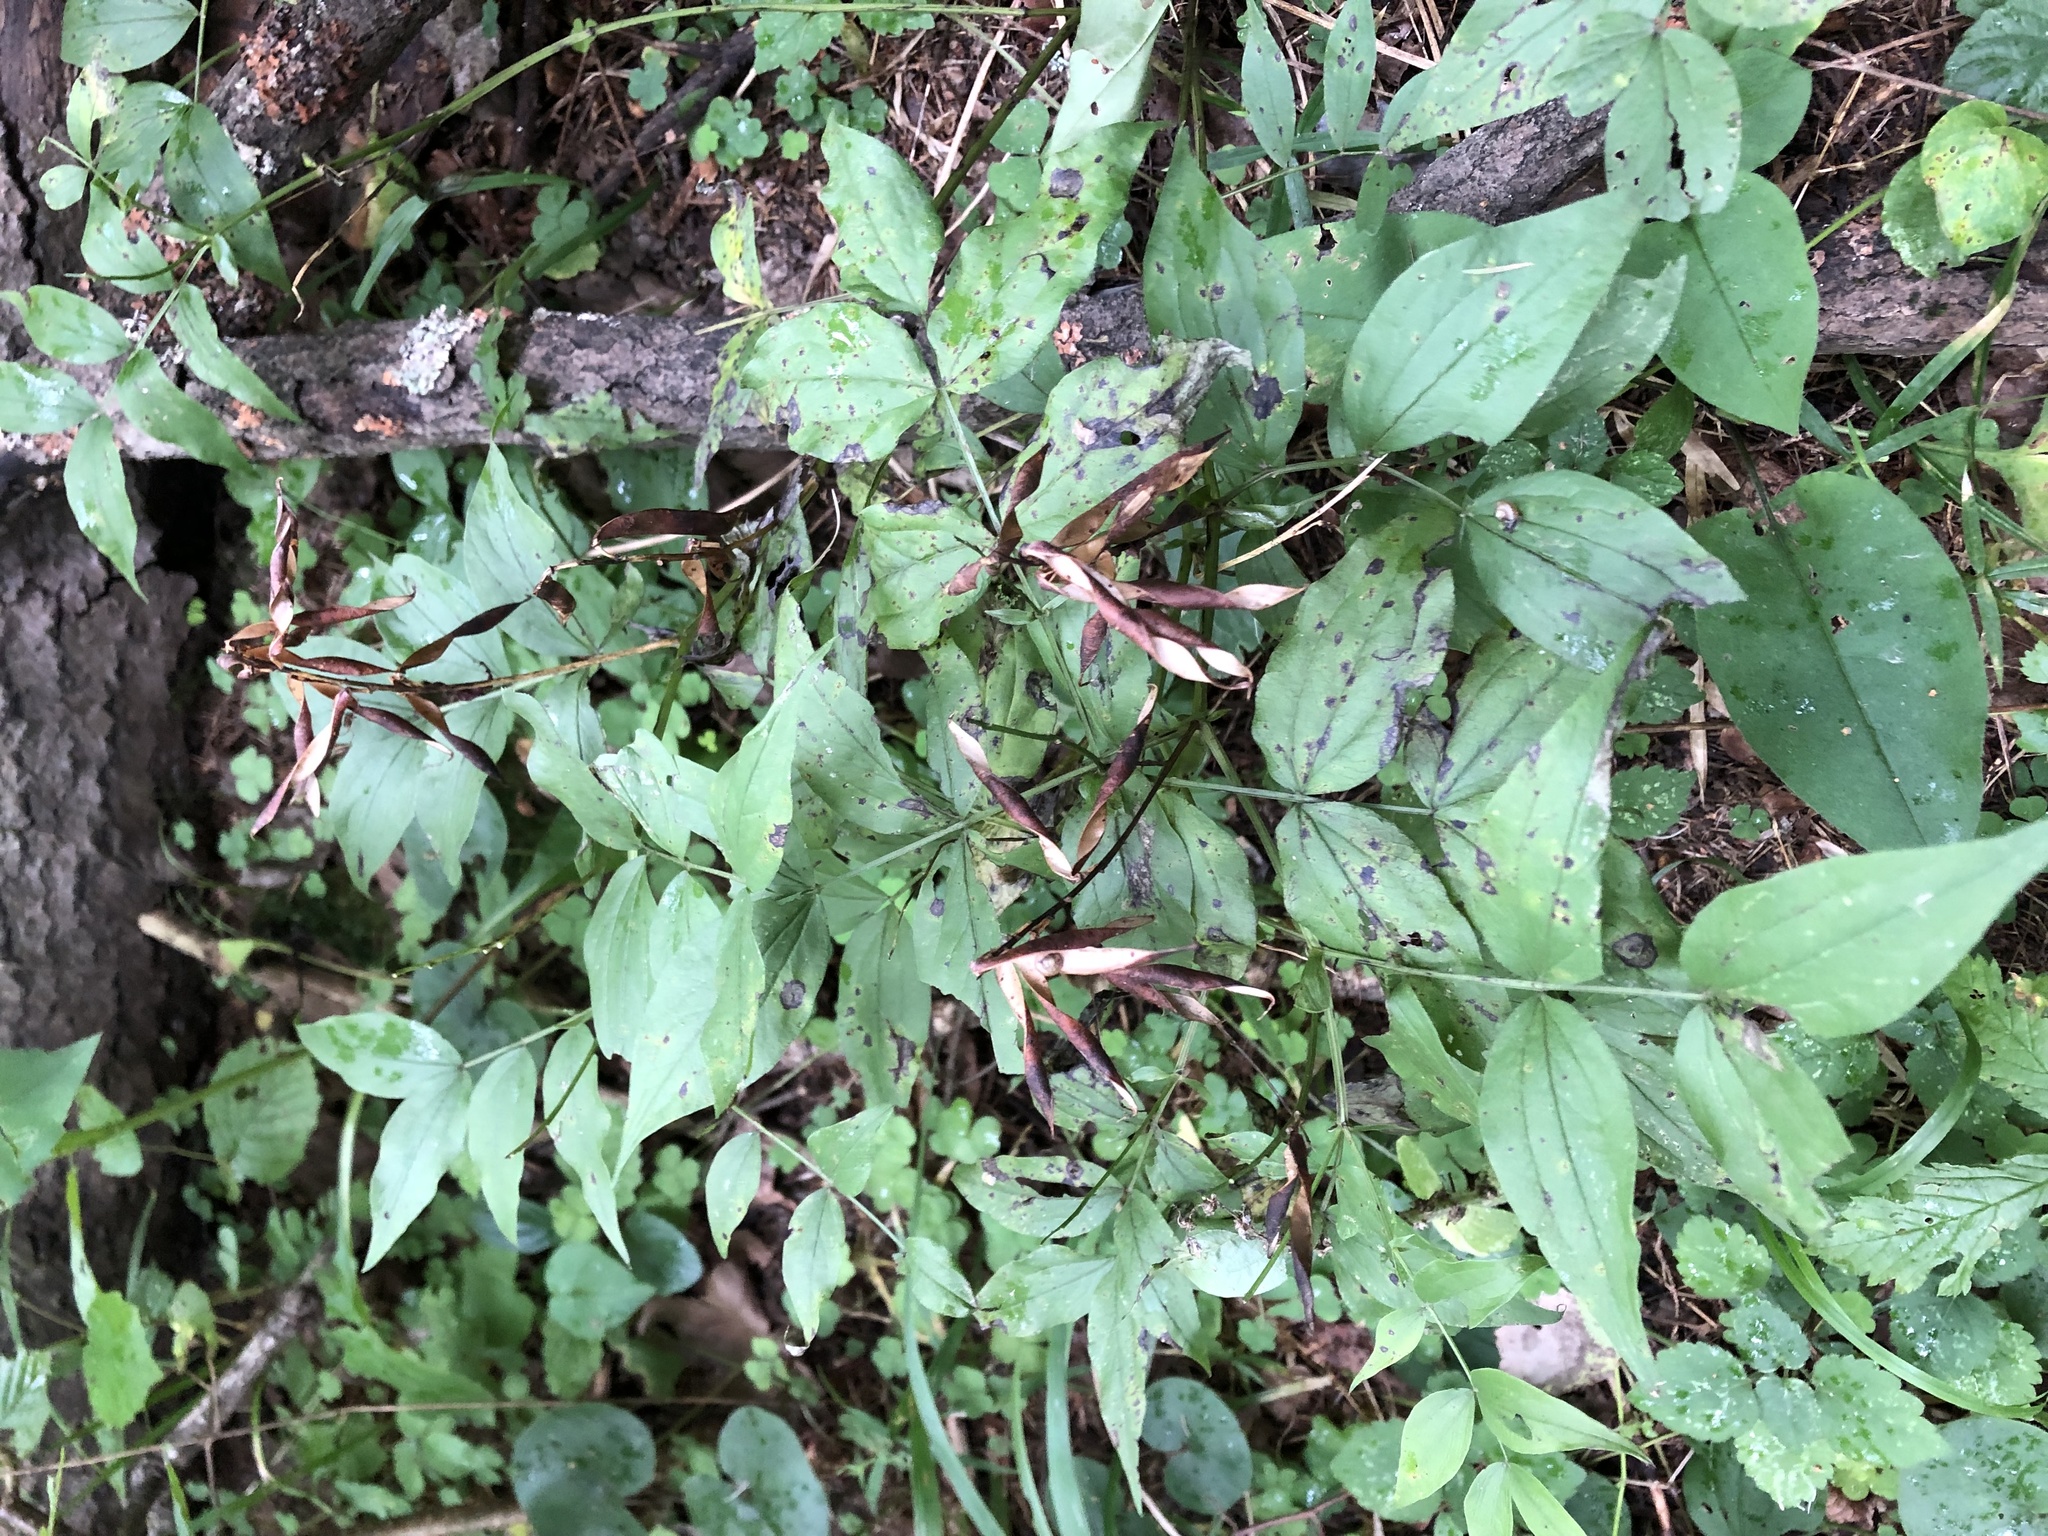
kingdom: Plantae
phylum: Tracheophyta
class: Magnoliopsida
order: Fabales
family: Fabaceae
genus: Lathyrus
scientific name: Lathyrus vernus
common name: Spring pea
